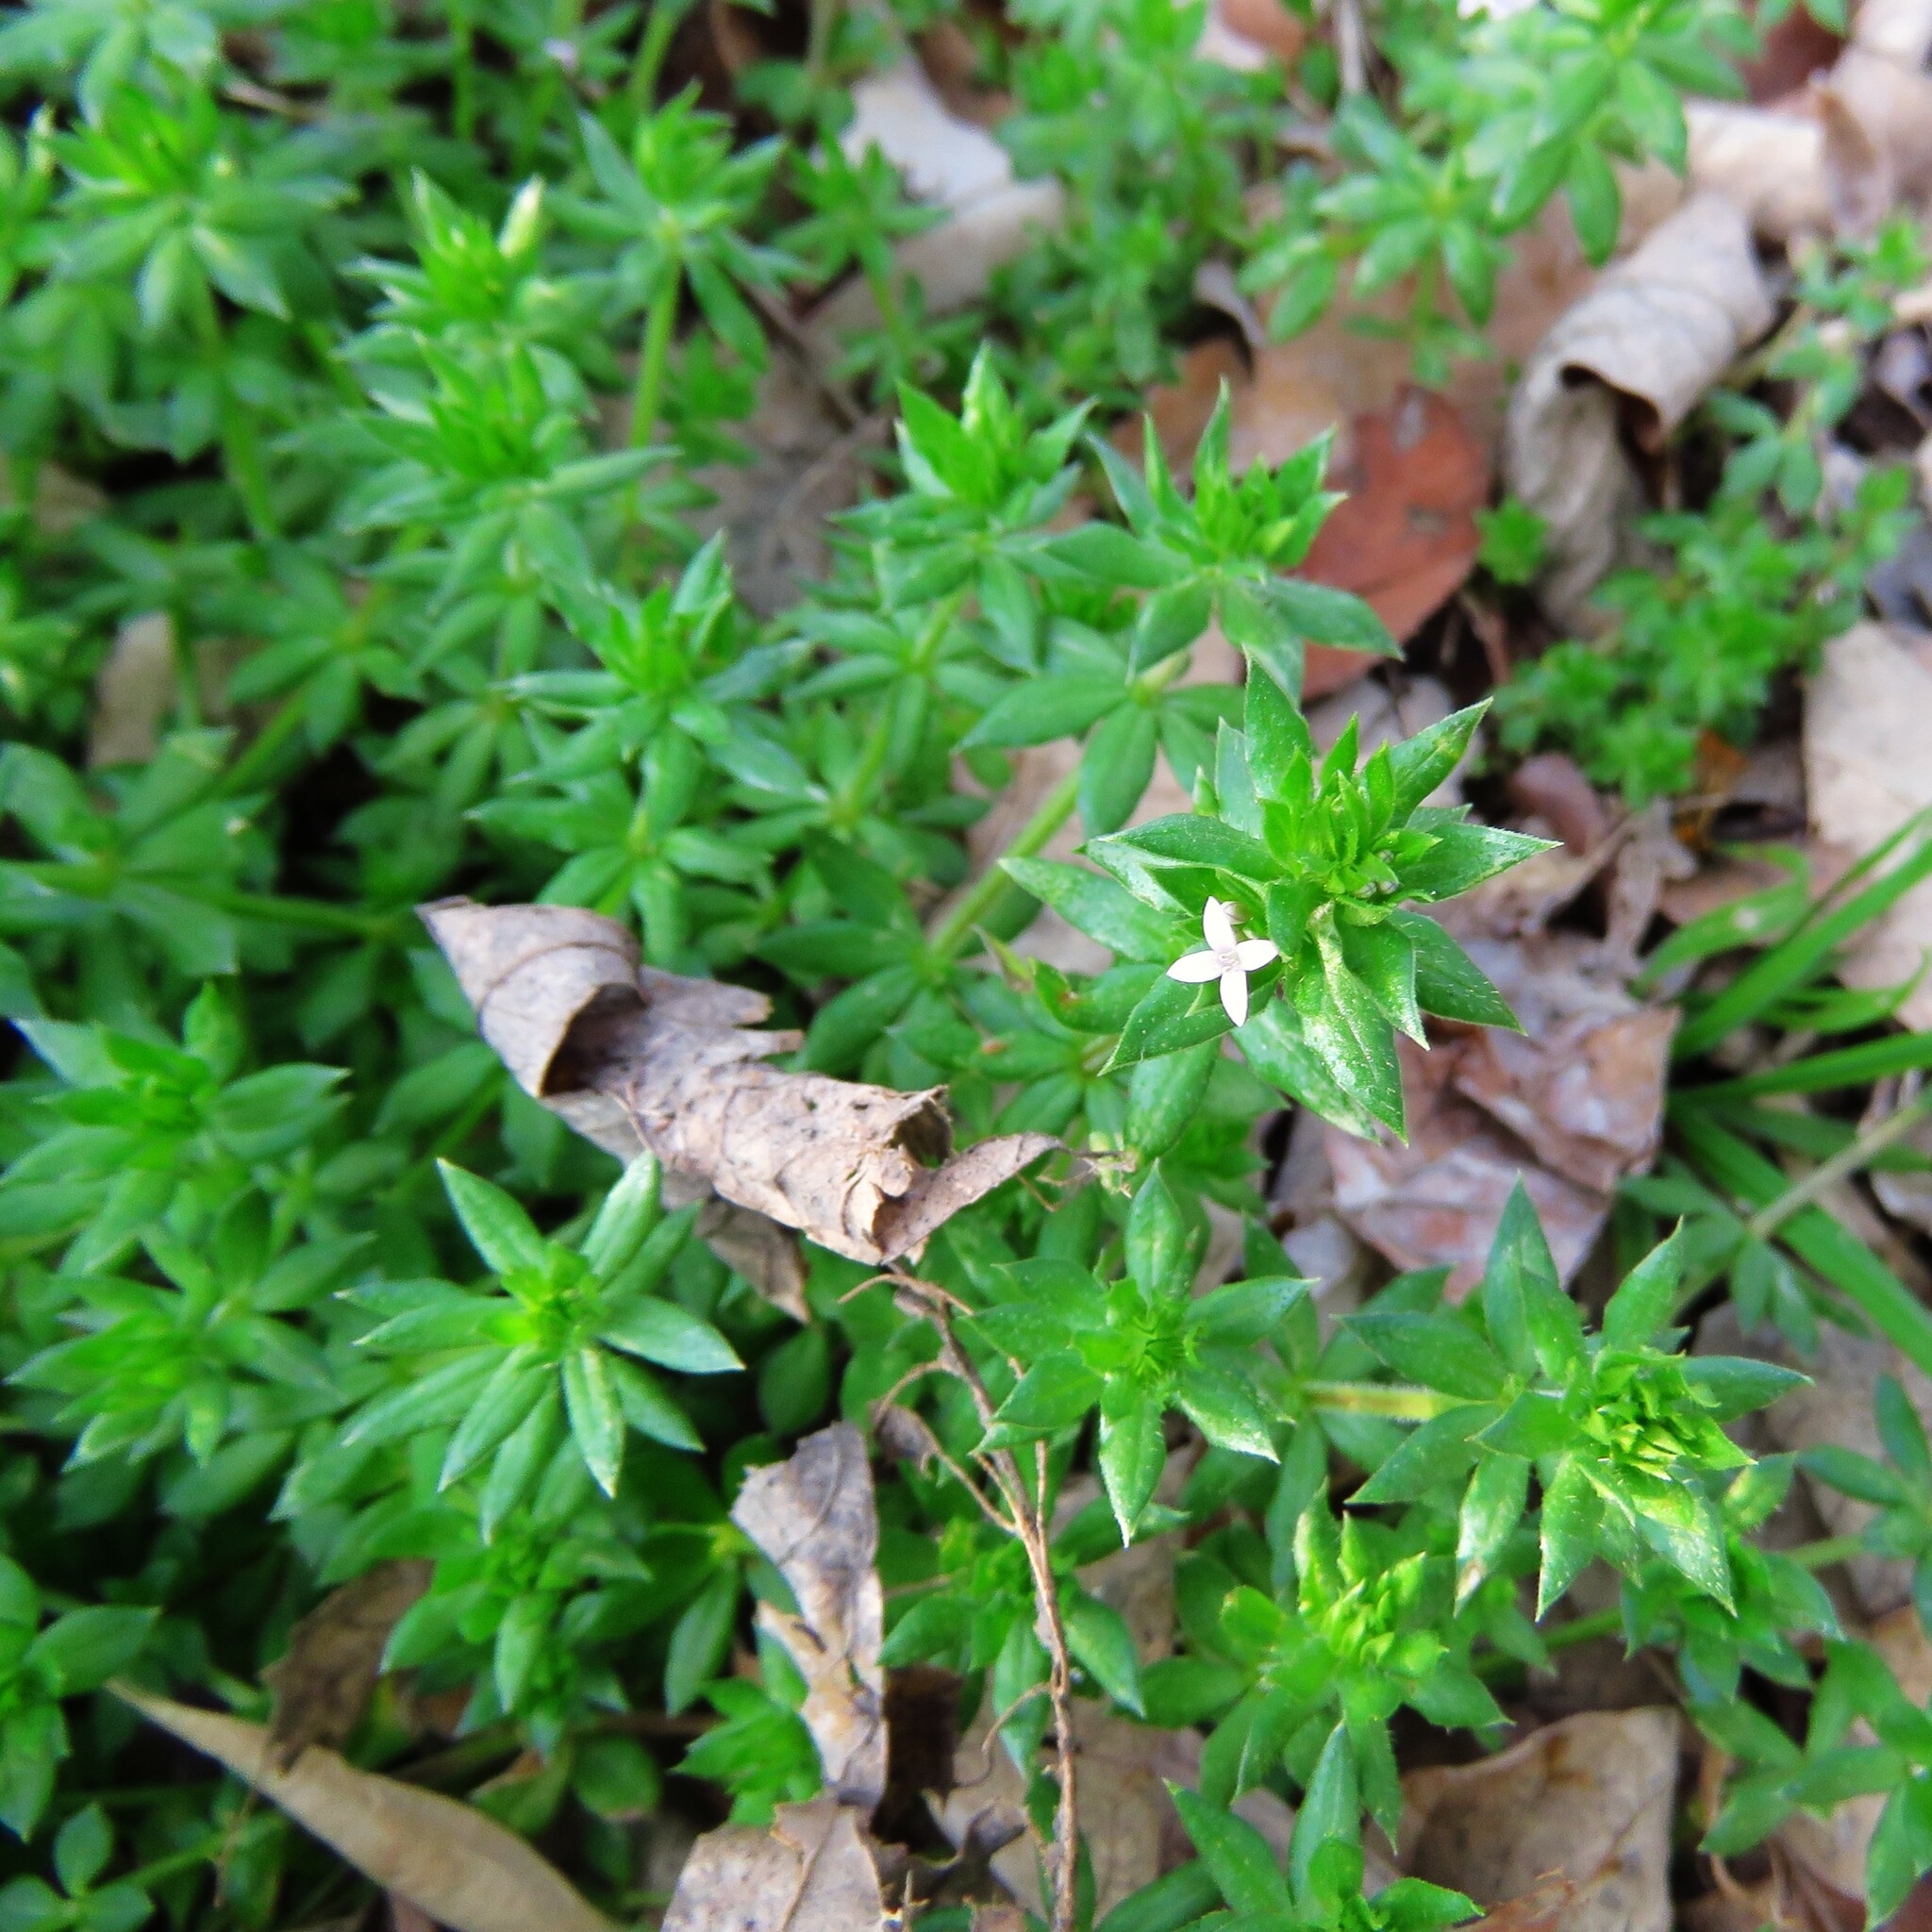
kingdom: Plantae
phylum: Tracheophyta
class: Magnoliopsida
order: Gentianales
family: Rubiaceae
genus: Sherardia
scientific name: Sherardia arvensis
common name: Field madder
